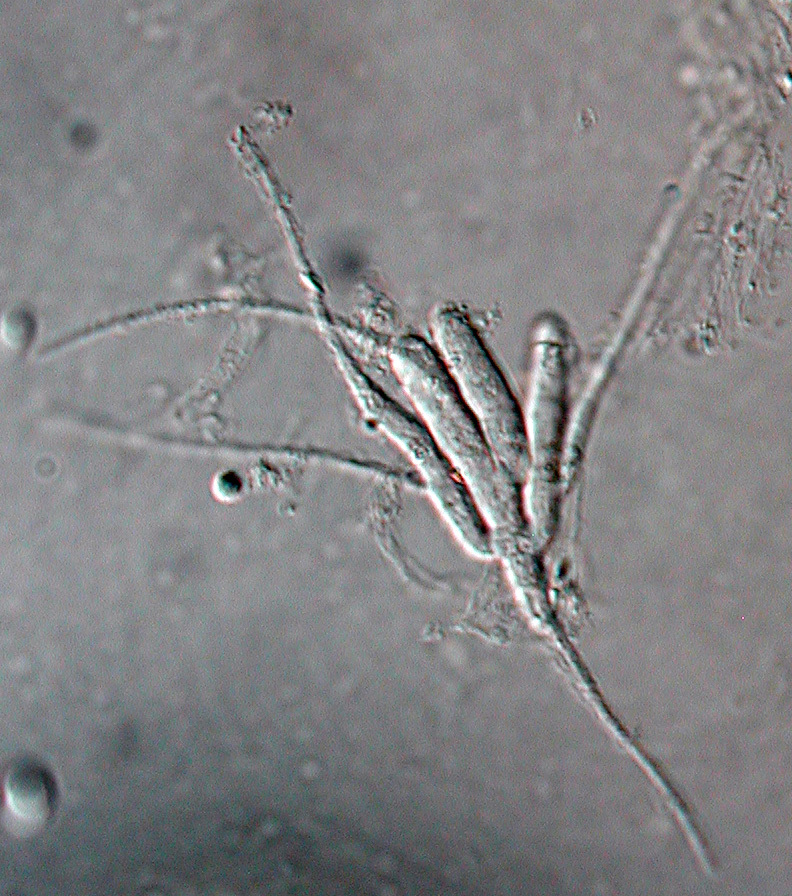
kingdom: Fungi
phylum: Ascomycota
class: Leotiomycetes
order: Helotiales
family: Helotiaceae
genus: Tetracladium
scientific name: Tetracladium setigerum
